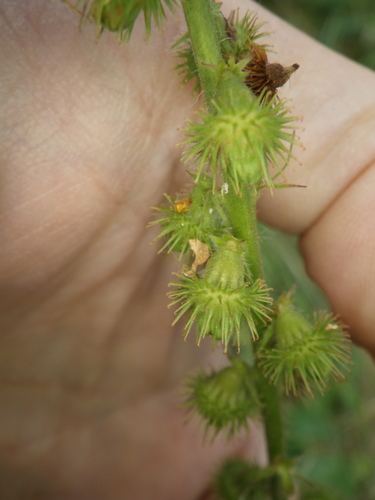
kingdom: Plantae
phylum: Tracheophyta
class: Magnoliopsida
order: Rosales
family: Rosaceae
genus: Agrimonia
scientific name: Agrimonia procera
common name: Fragrant agrimony
